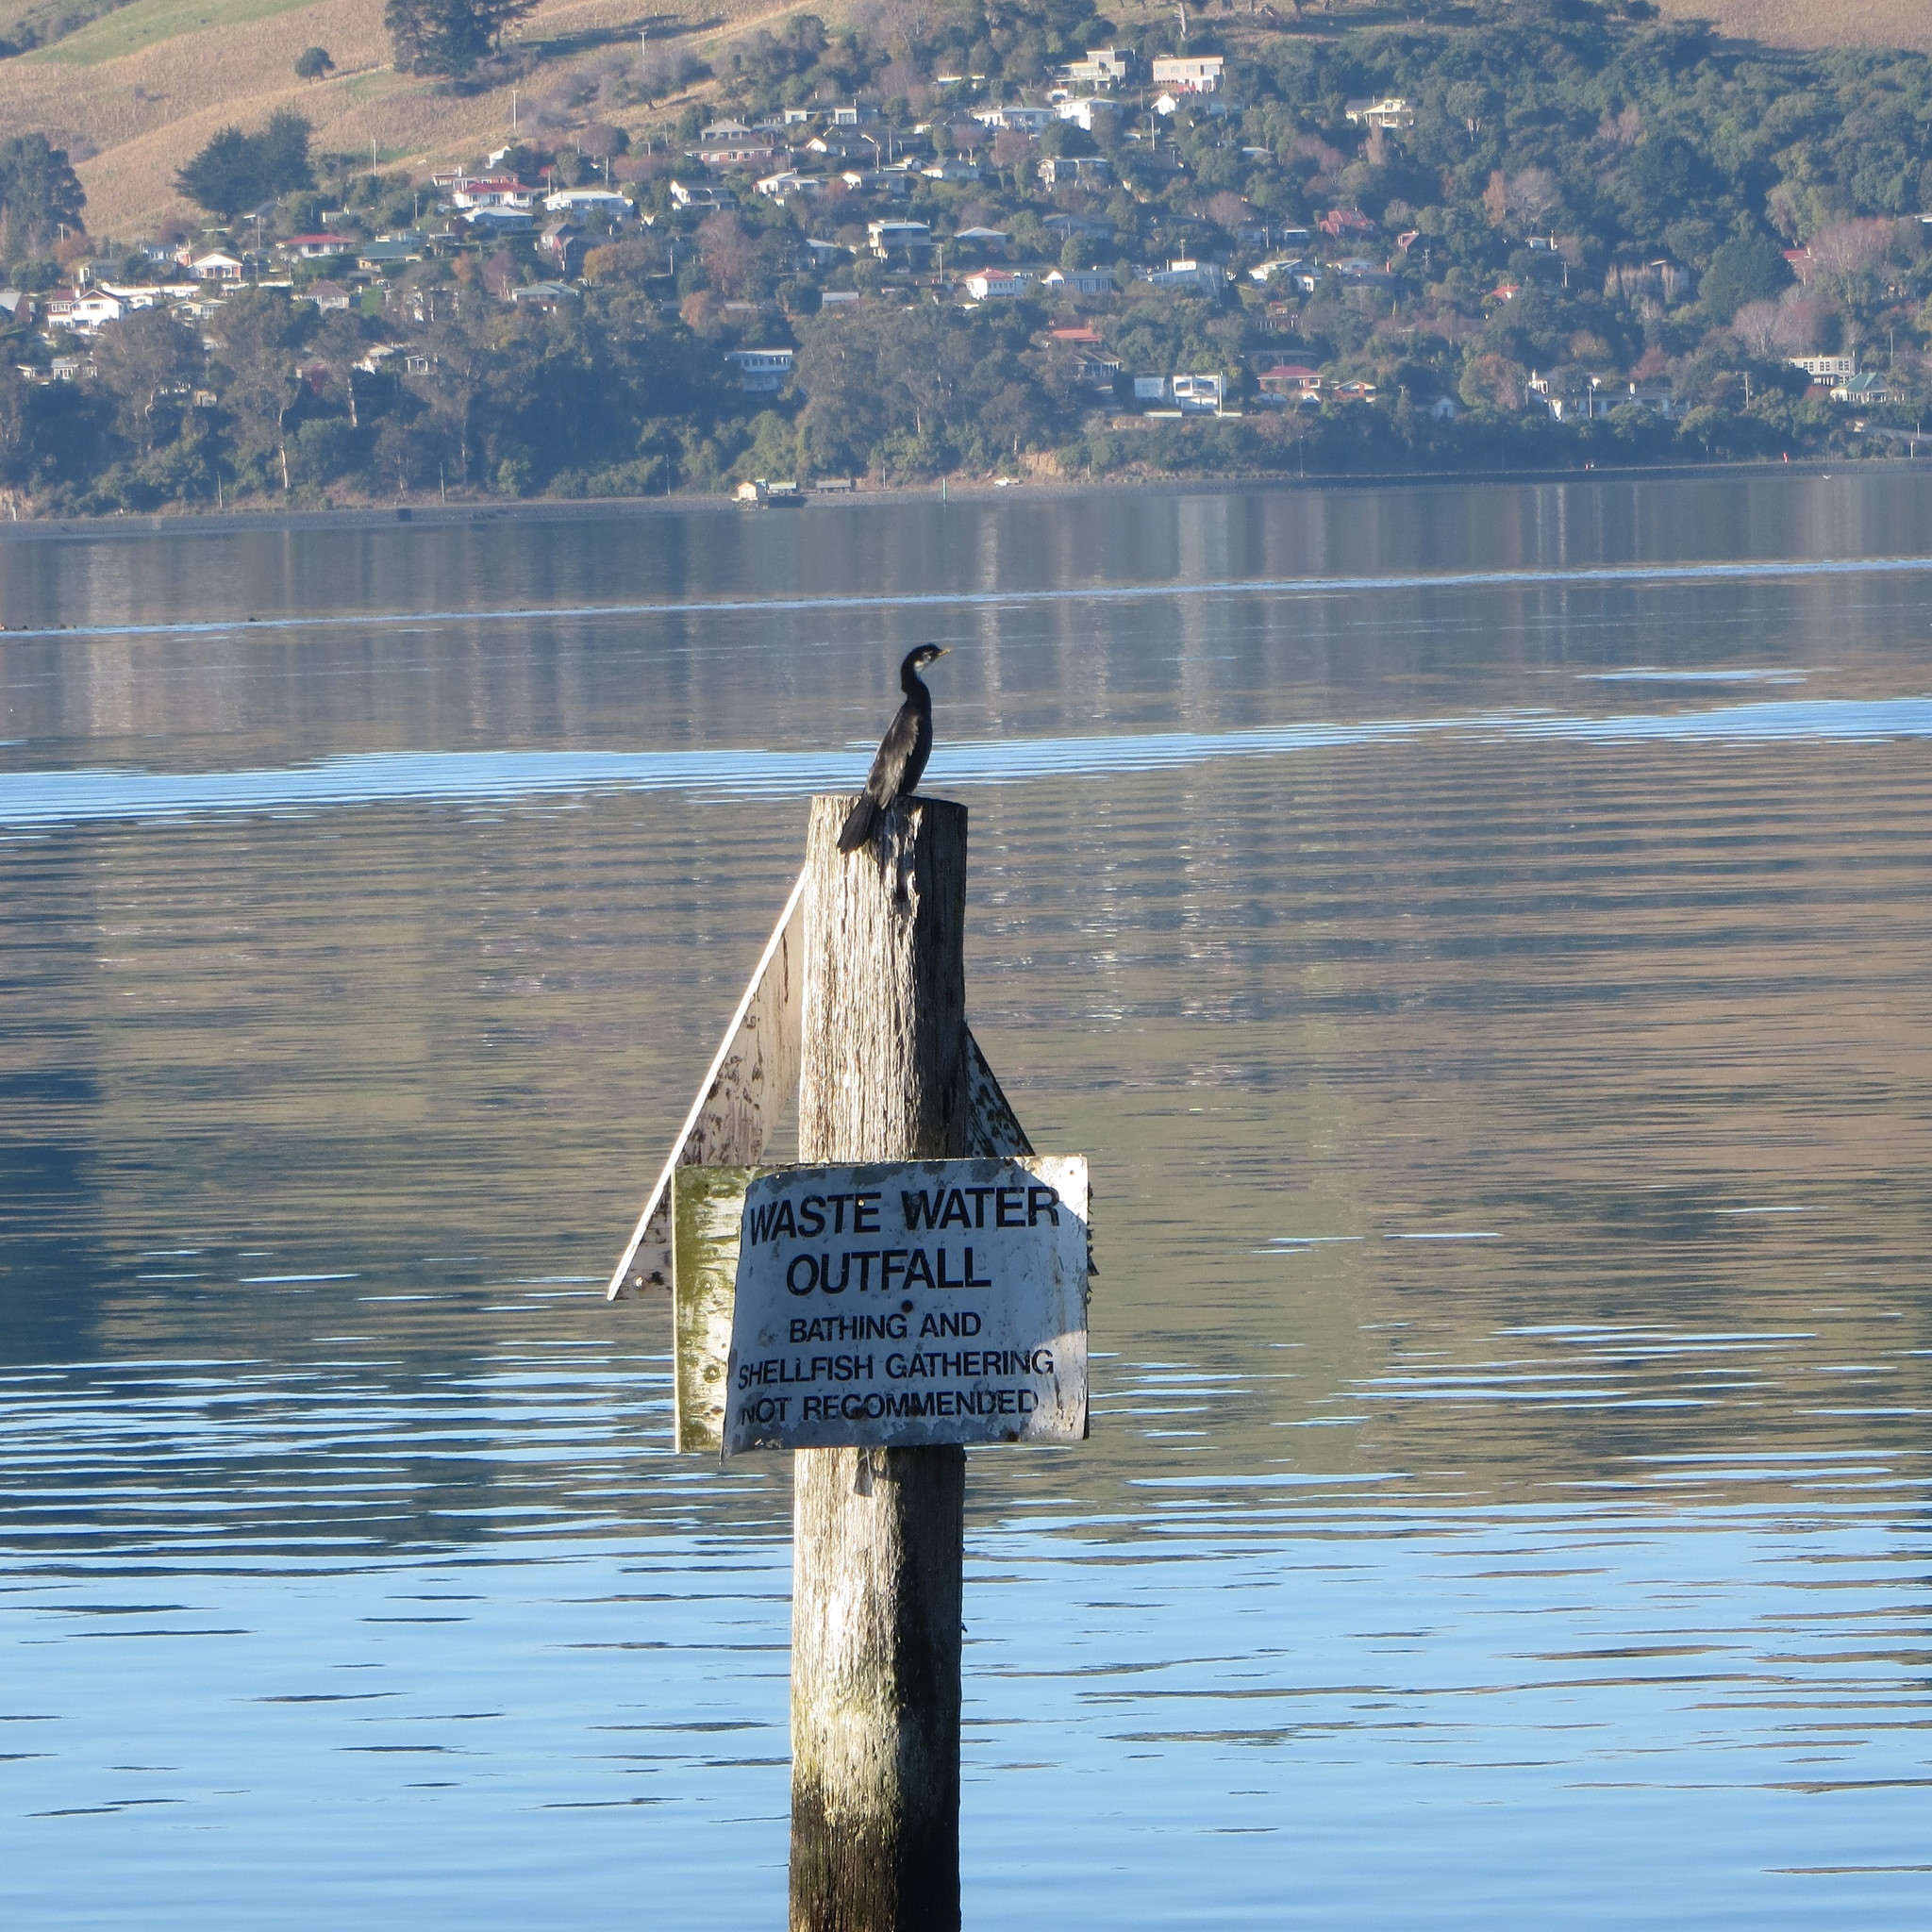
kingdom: Animalia
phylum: Chordata
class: Aves
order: Suliformes
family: Phalacrocoracidae
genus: Microcarbo
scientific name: Microcarbo melanoleucos
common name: Little pied cormorant
